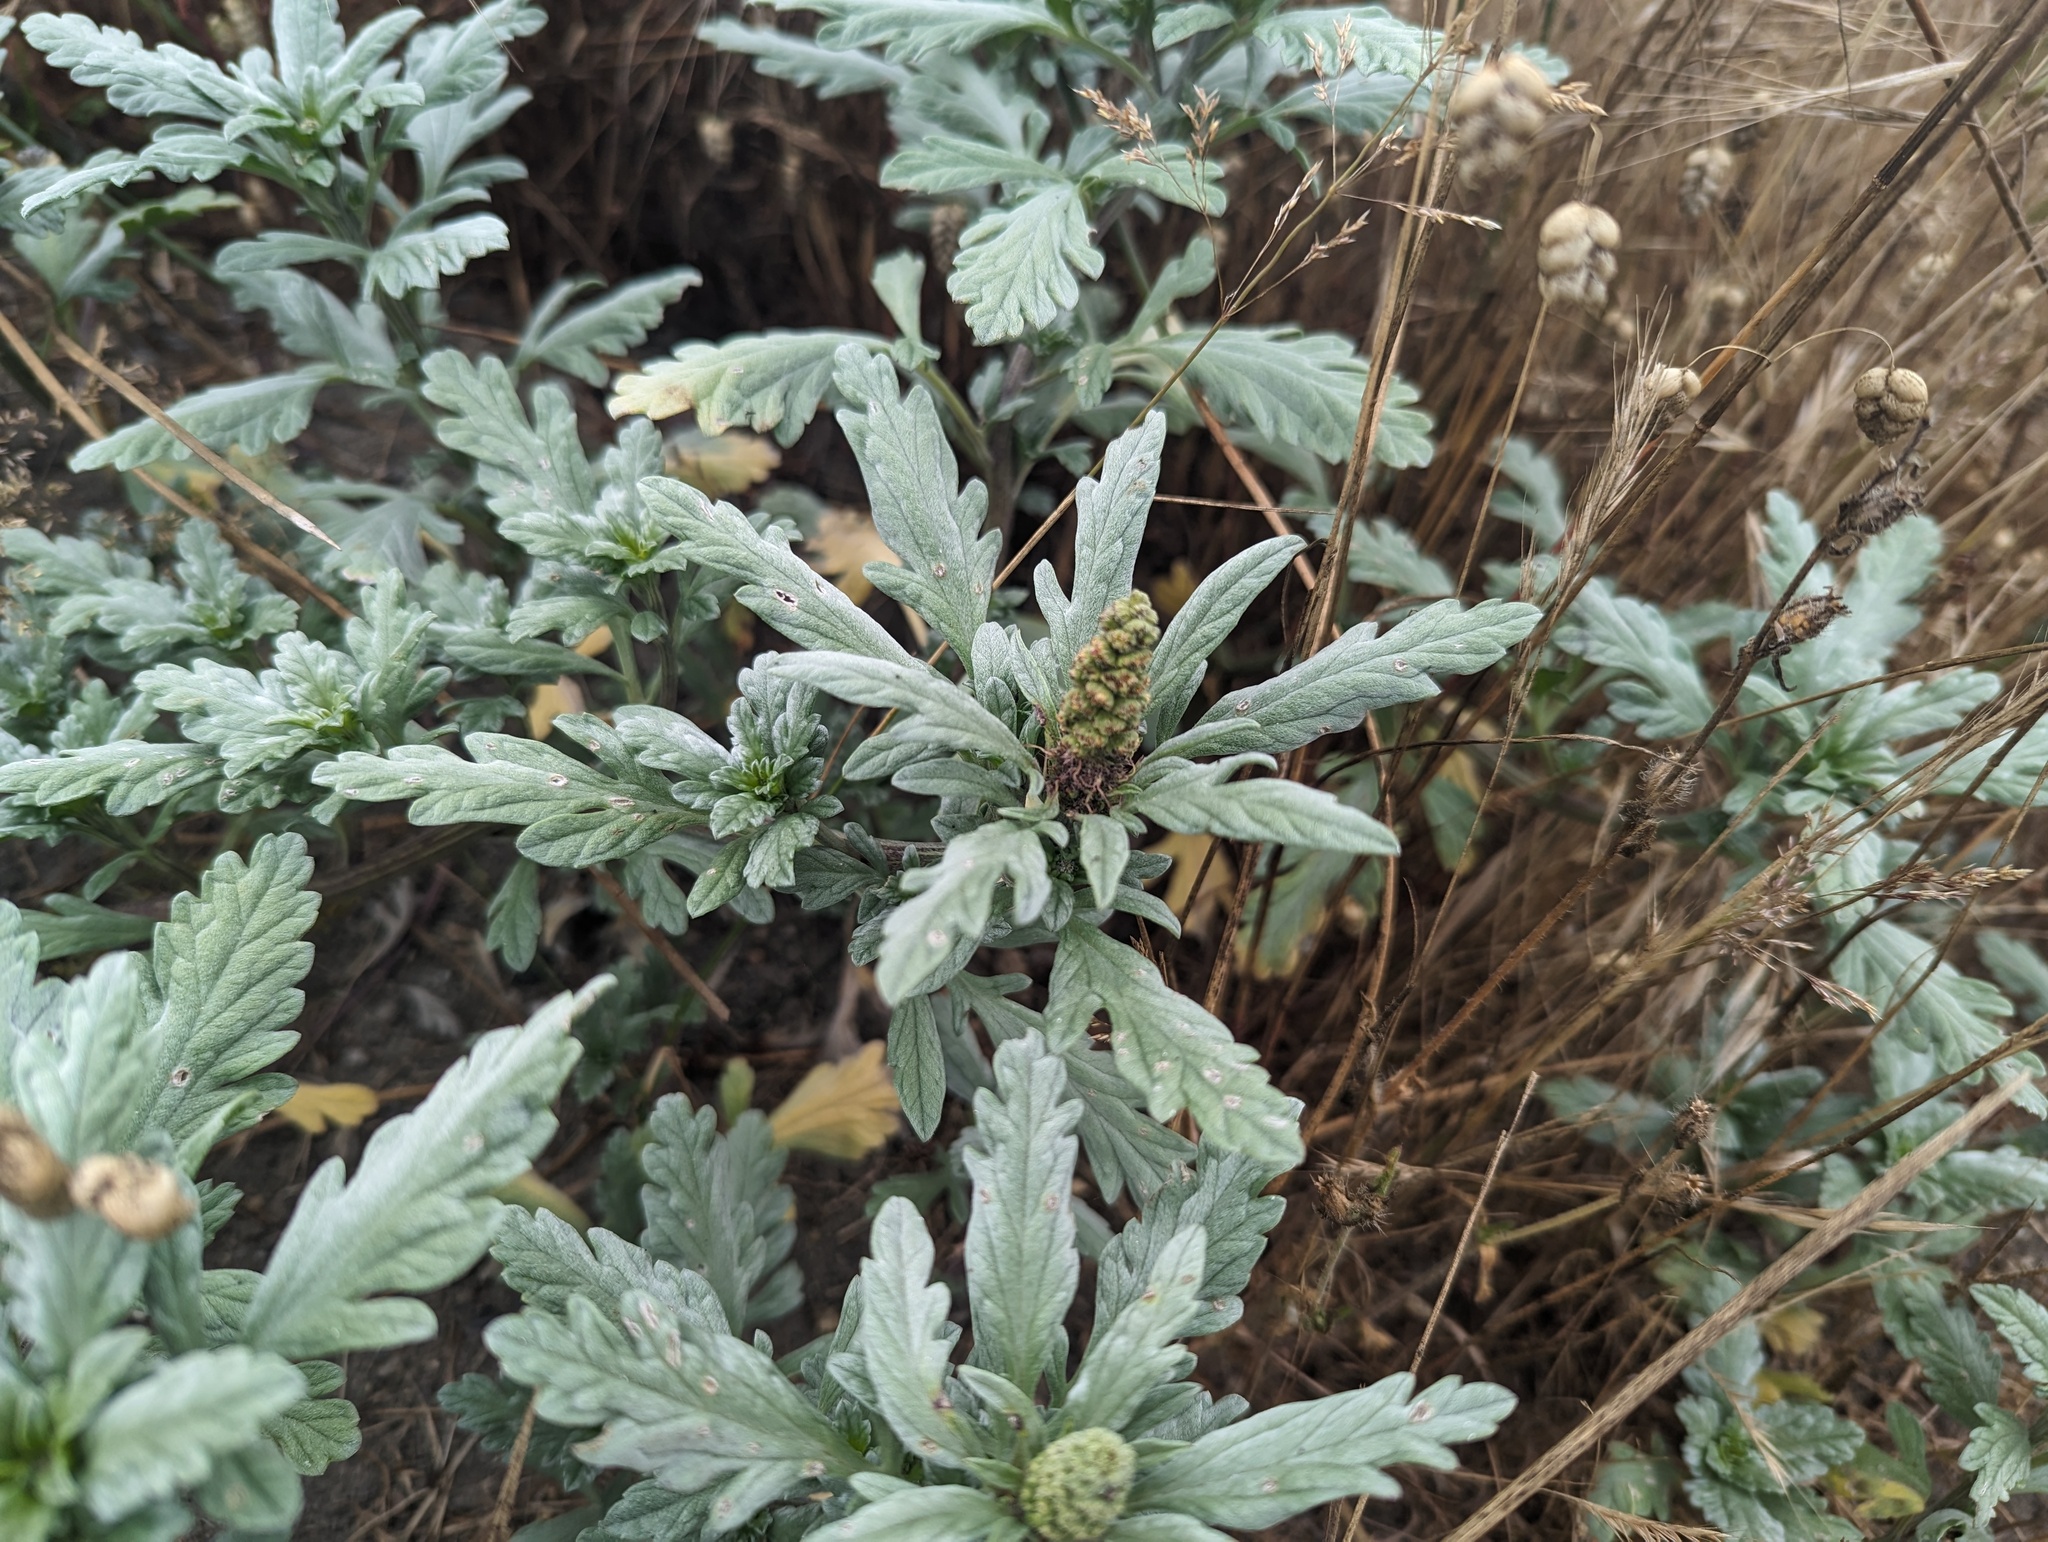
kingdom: Plantae
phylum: Tracheophyta
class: Magnoliopsida
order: Asterales
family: Asteraceae
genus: Ambrosia
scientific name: Ambrosia chamissonis
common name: Beachbur
